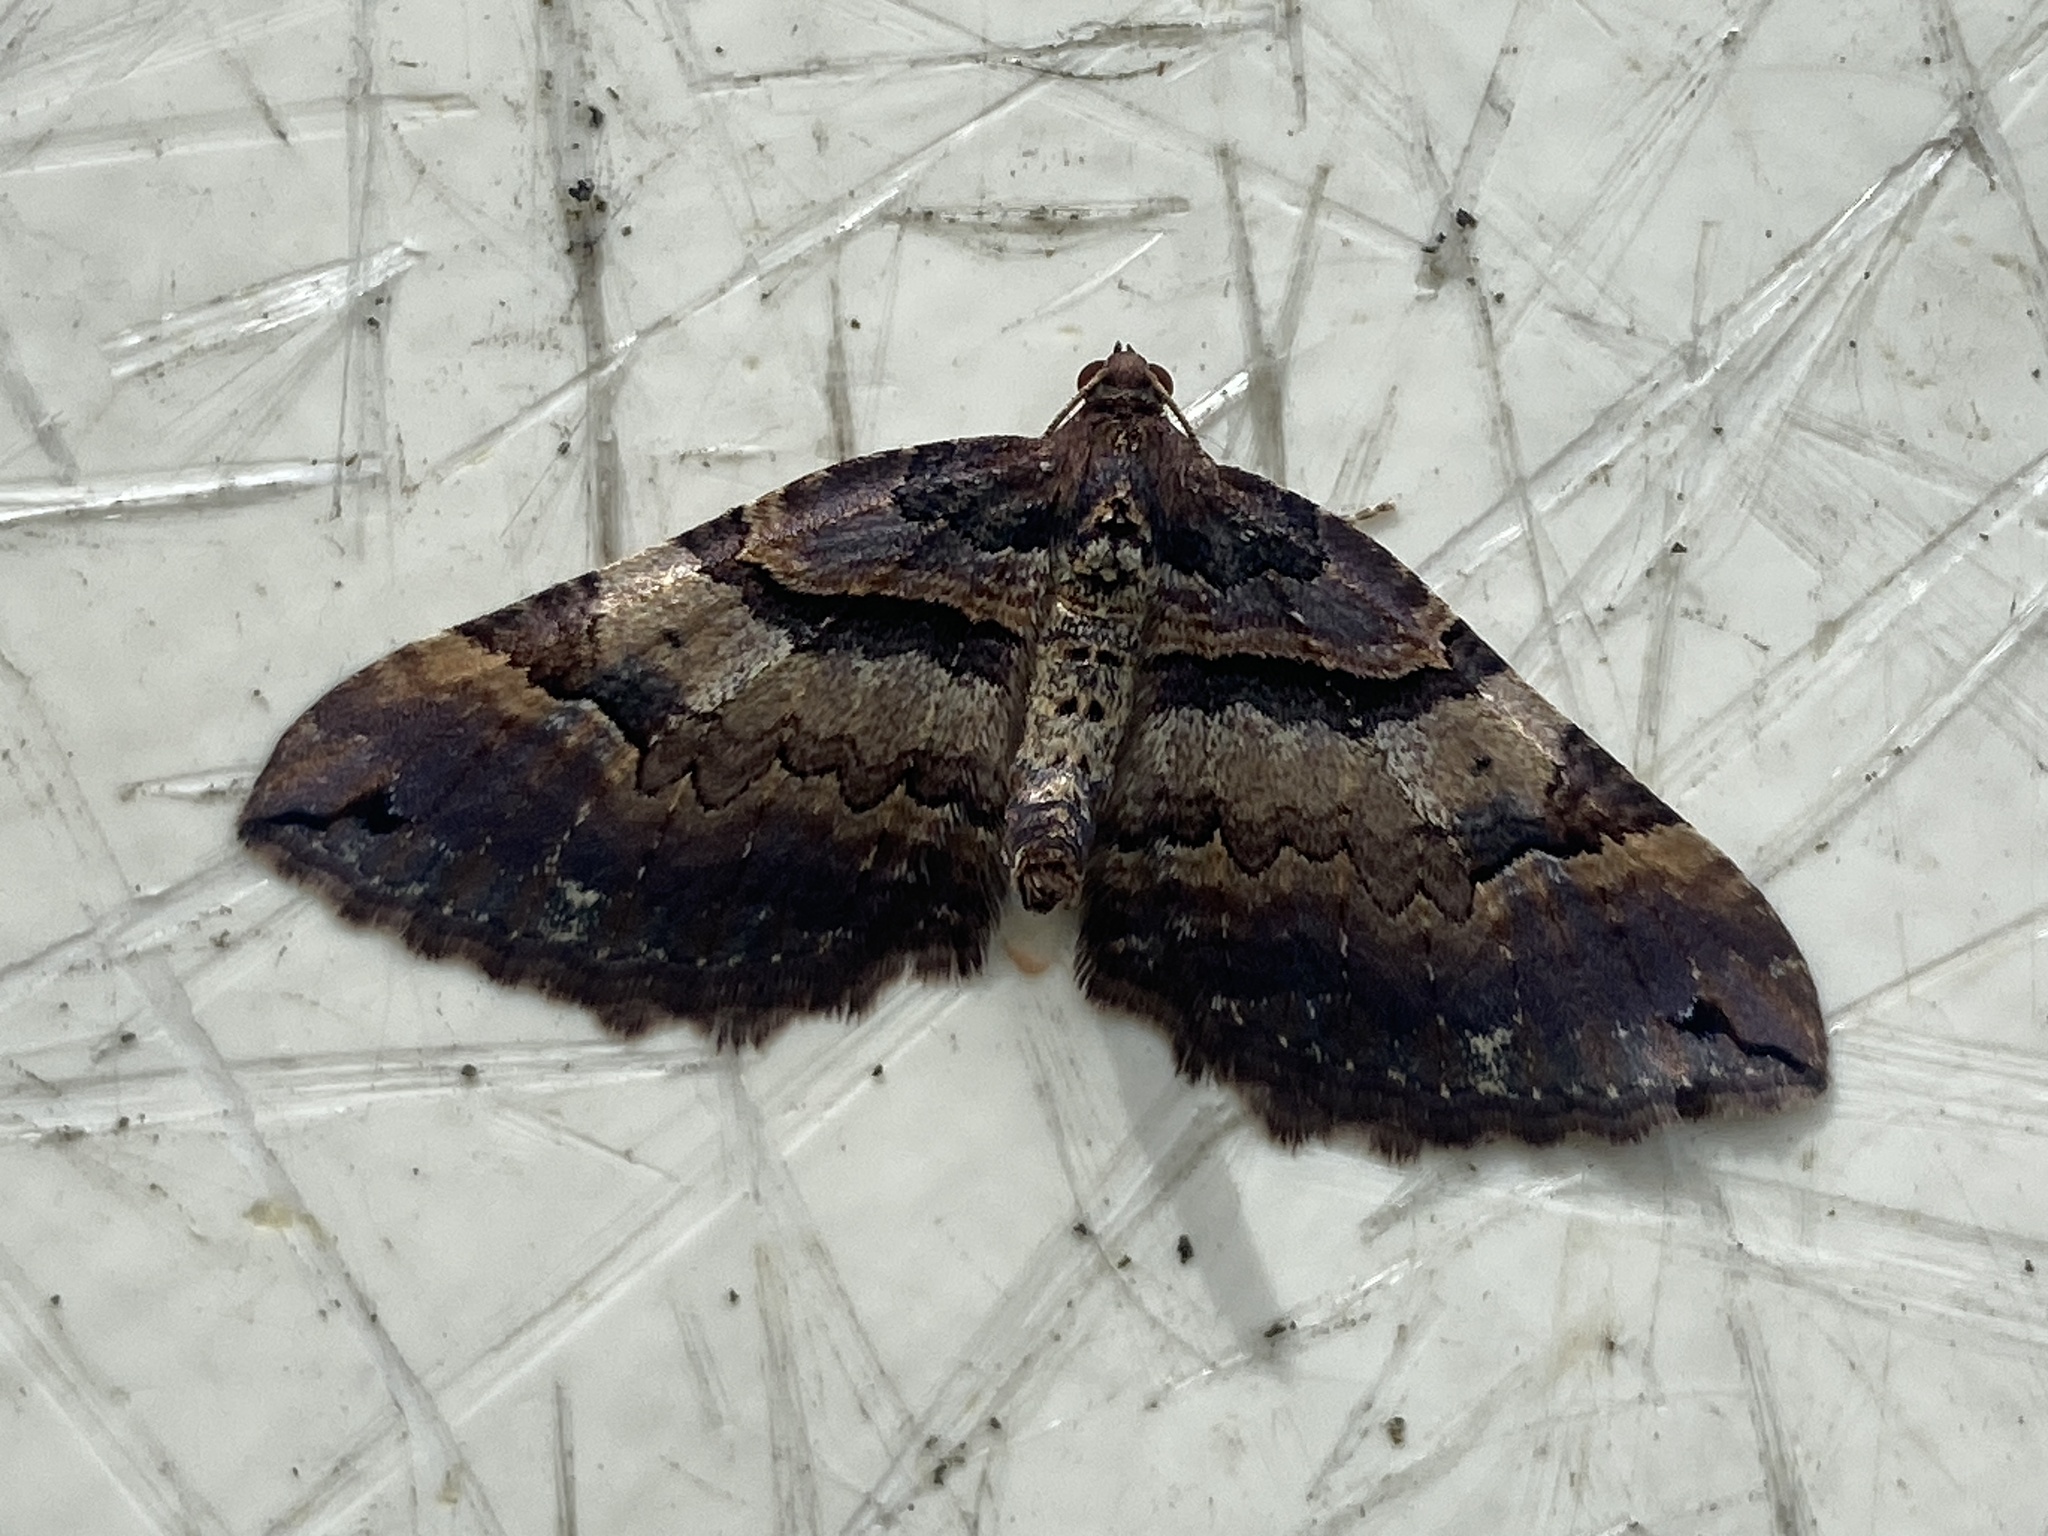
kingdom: Animalia
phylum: Arthropoda
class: Insecta
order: Lepidoptera
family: Geometridae
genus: Anticlea
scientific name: Anticlea badiata
